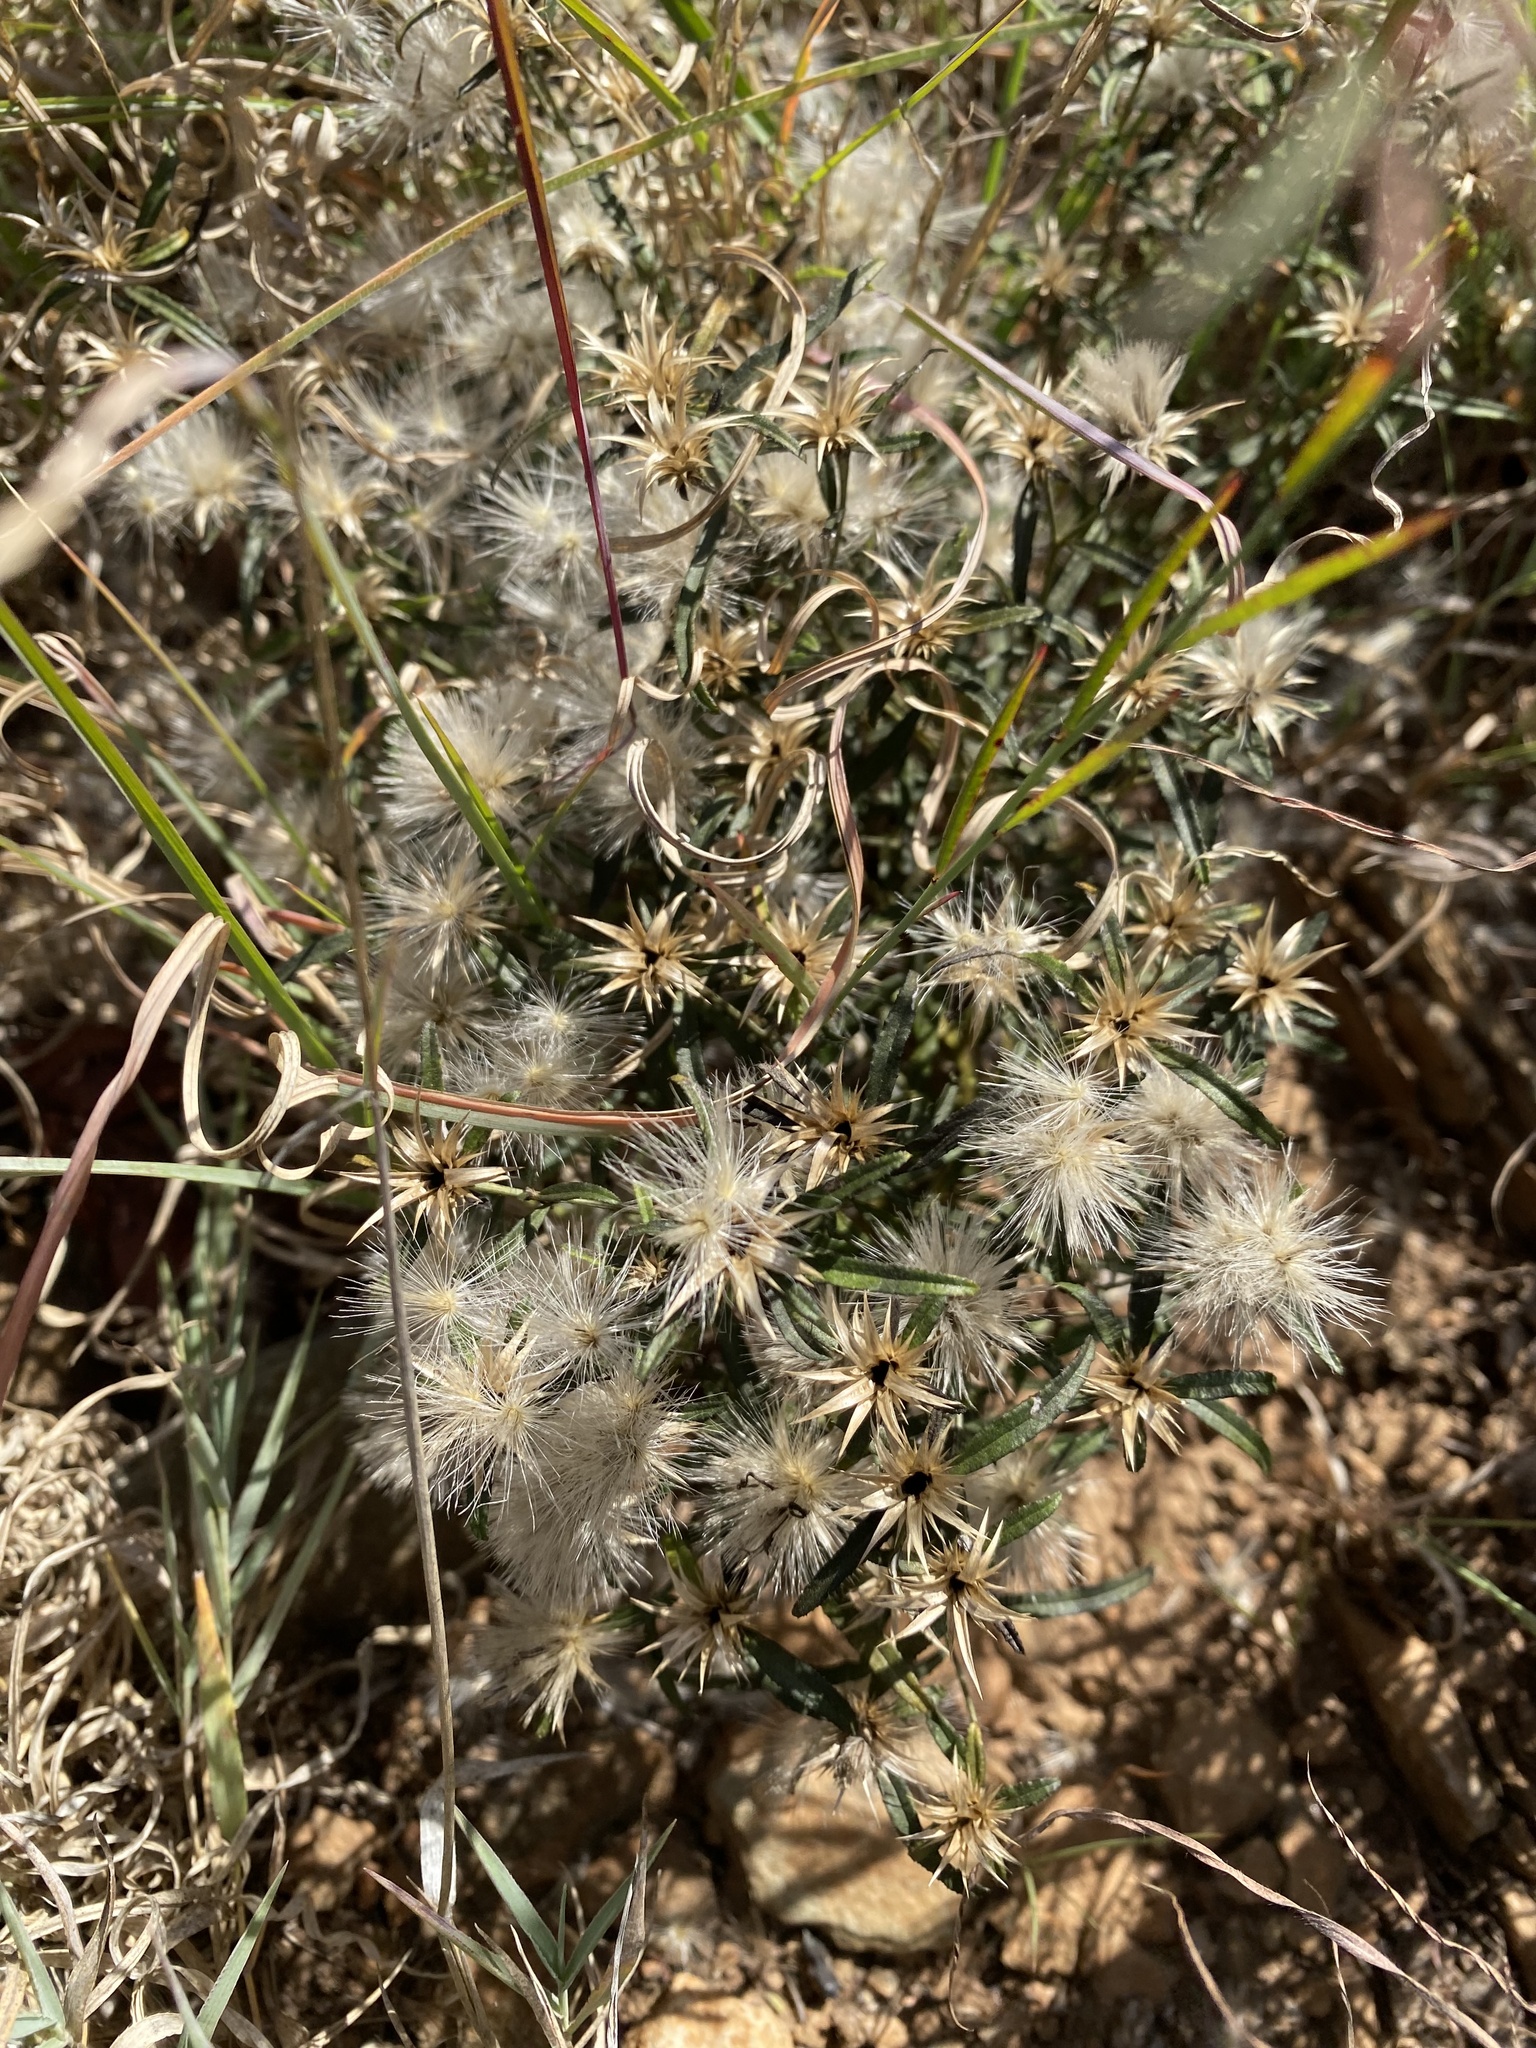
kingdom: Plantae
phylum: Tracheophyta
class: Magnoliopsida
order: Asterales
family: Asteraceae
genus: Dicoma
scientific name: Dicoma anomala
